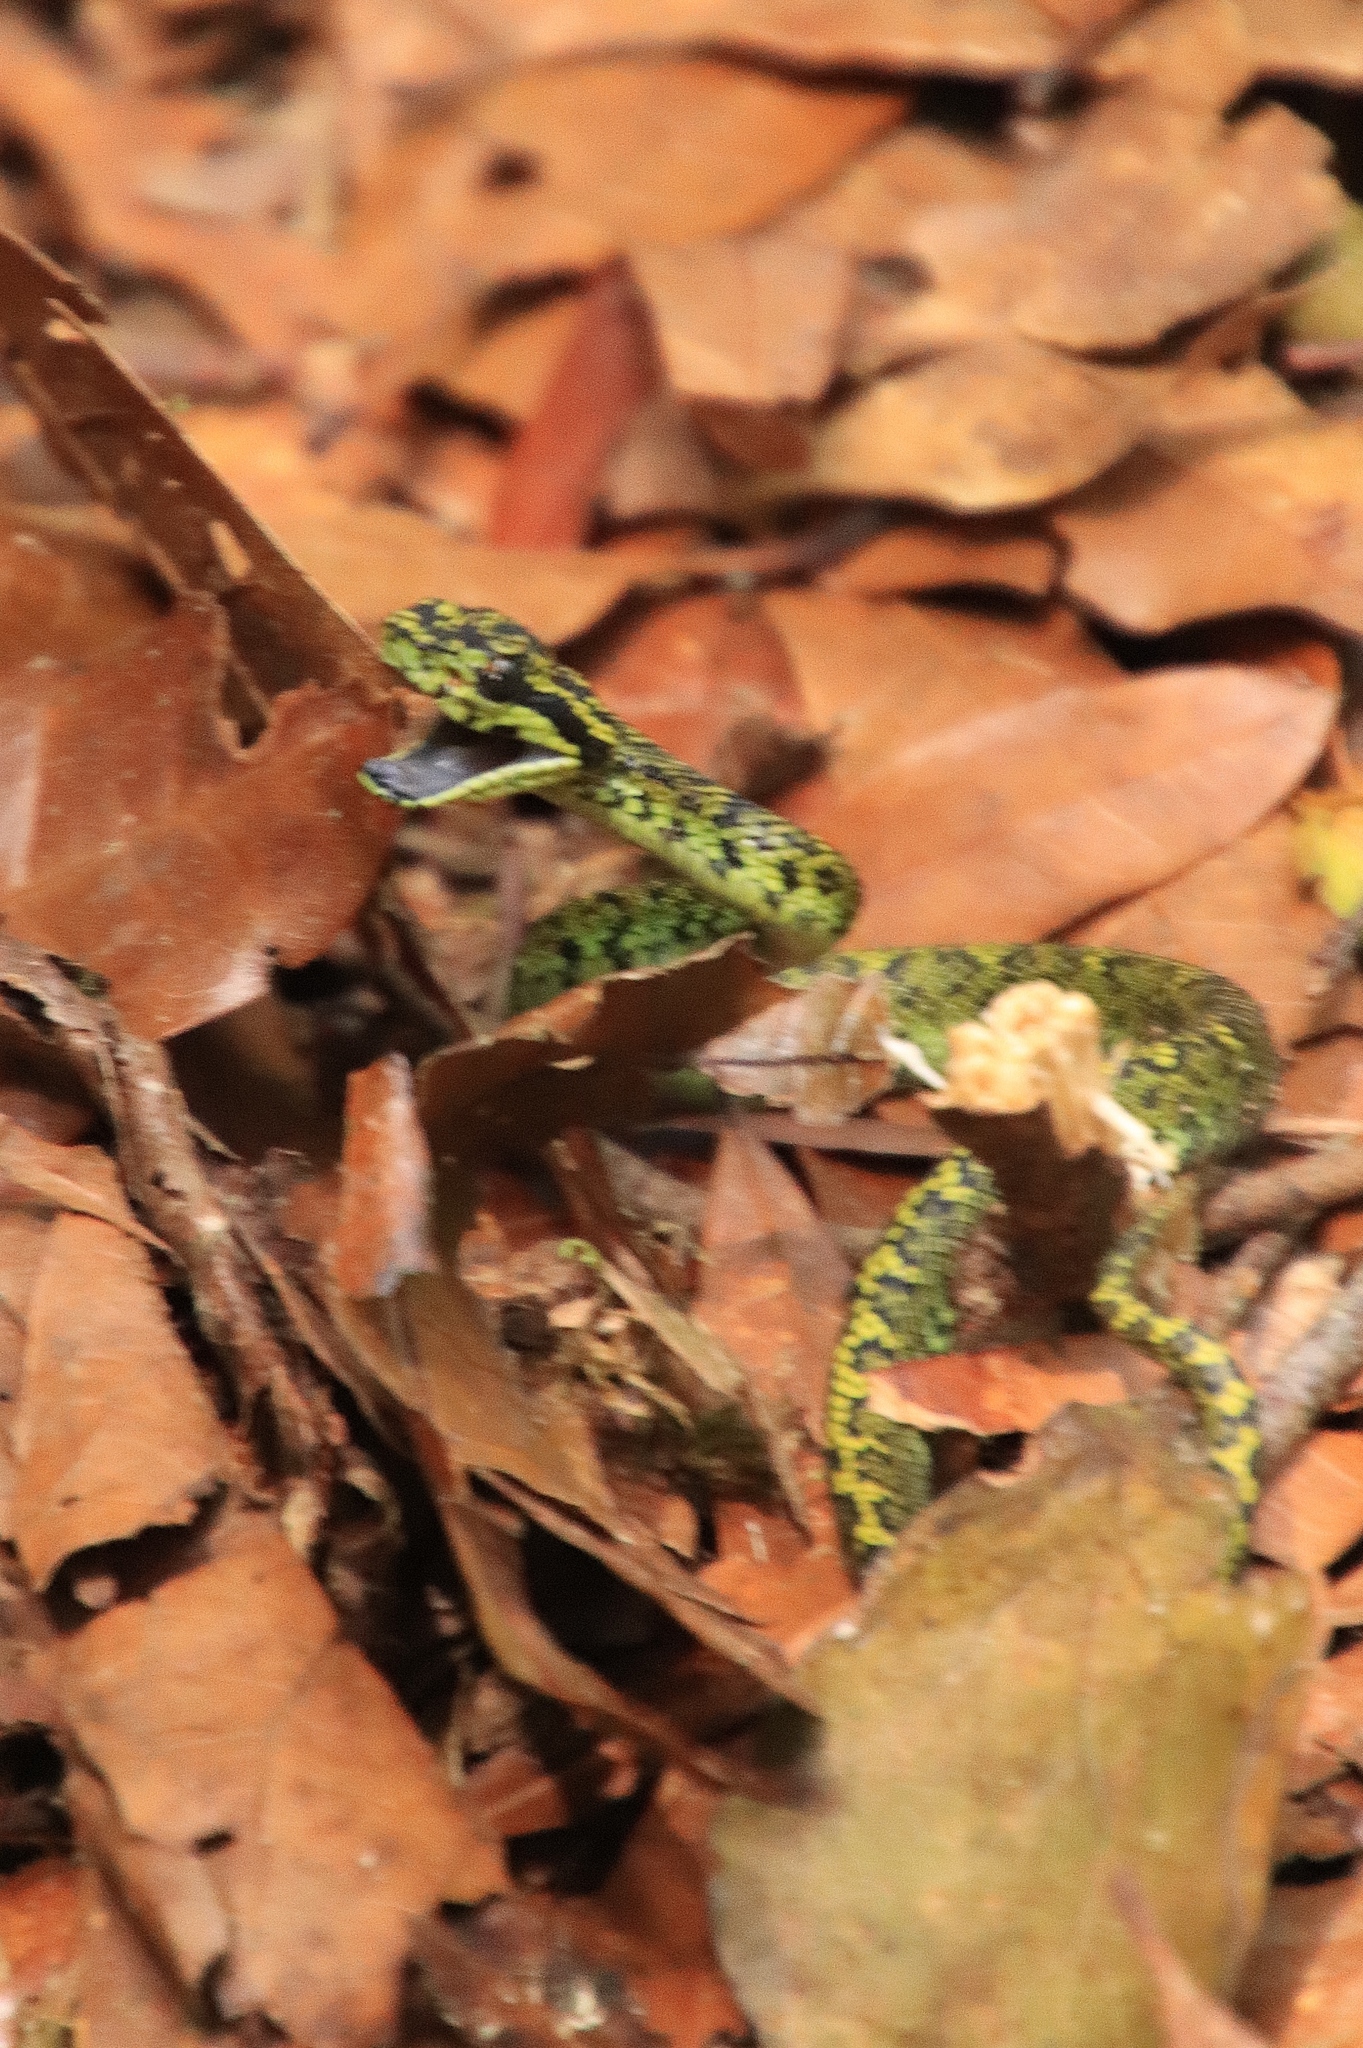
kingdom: Animalia
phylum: Chordata
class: Squamata
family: Viperidae
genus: Bothriechis
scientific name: Bothriechis nubestris
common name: Talamancan palm-pitviper
